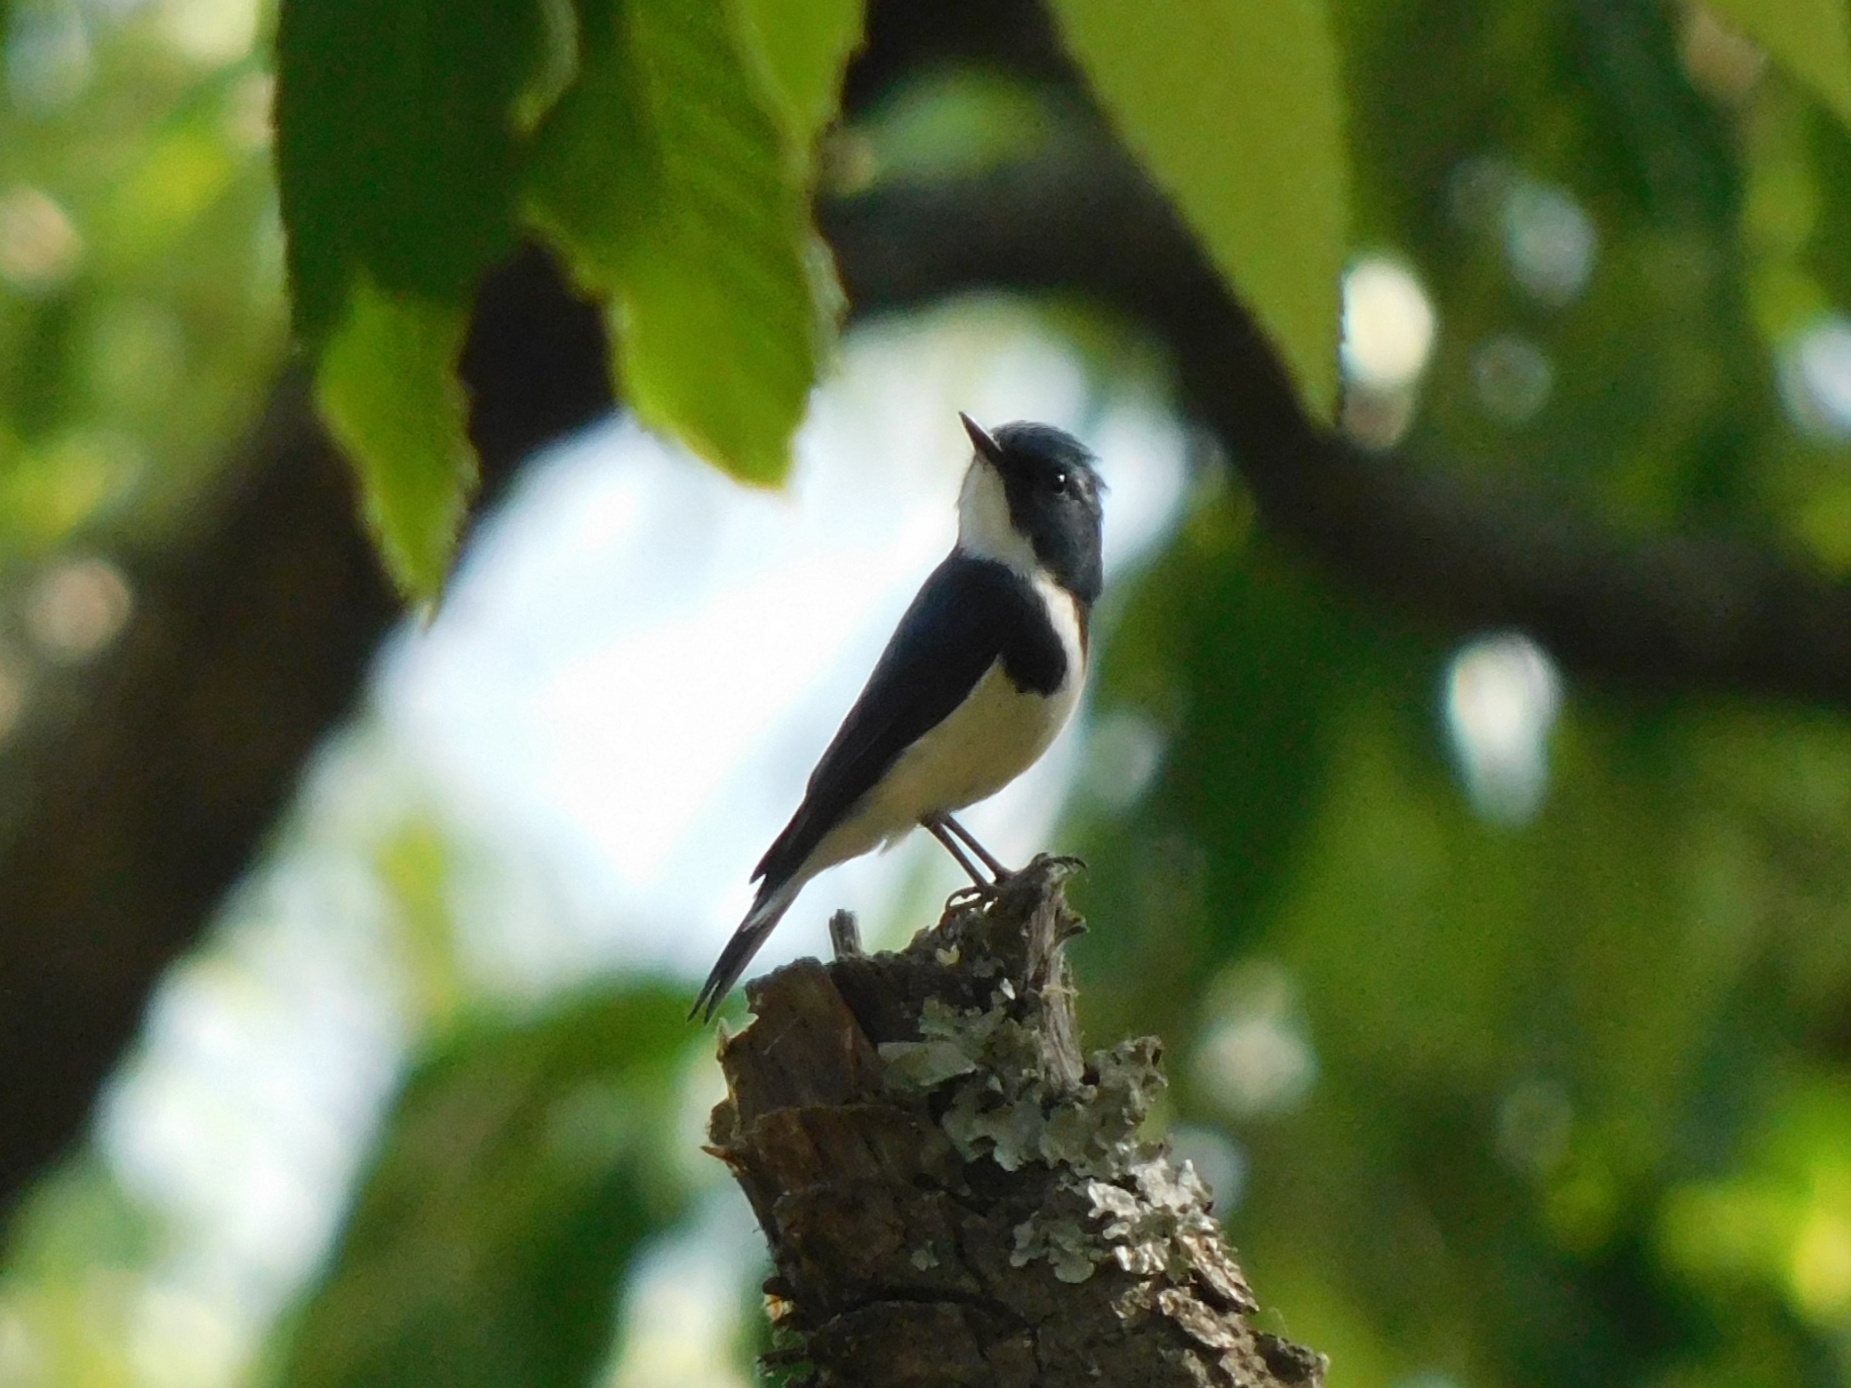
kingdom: Animalia
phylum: Chordata
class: Aves
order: Passeriformes
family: Muscicapidae
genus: Ficedula
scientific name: Ficedula superciliaris
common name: Ultramarine flycatcher
